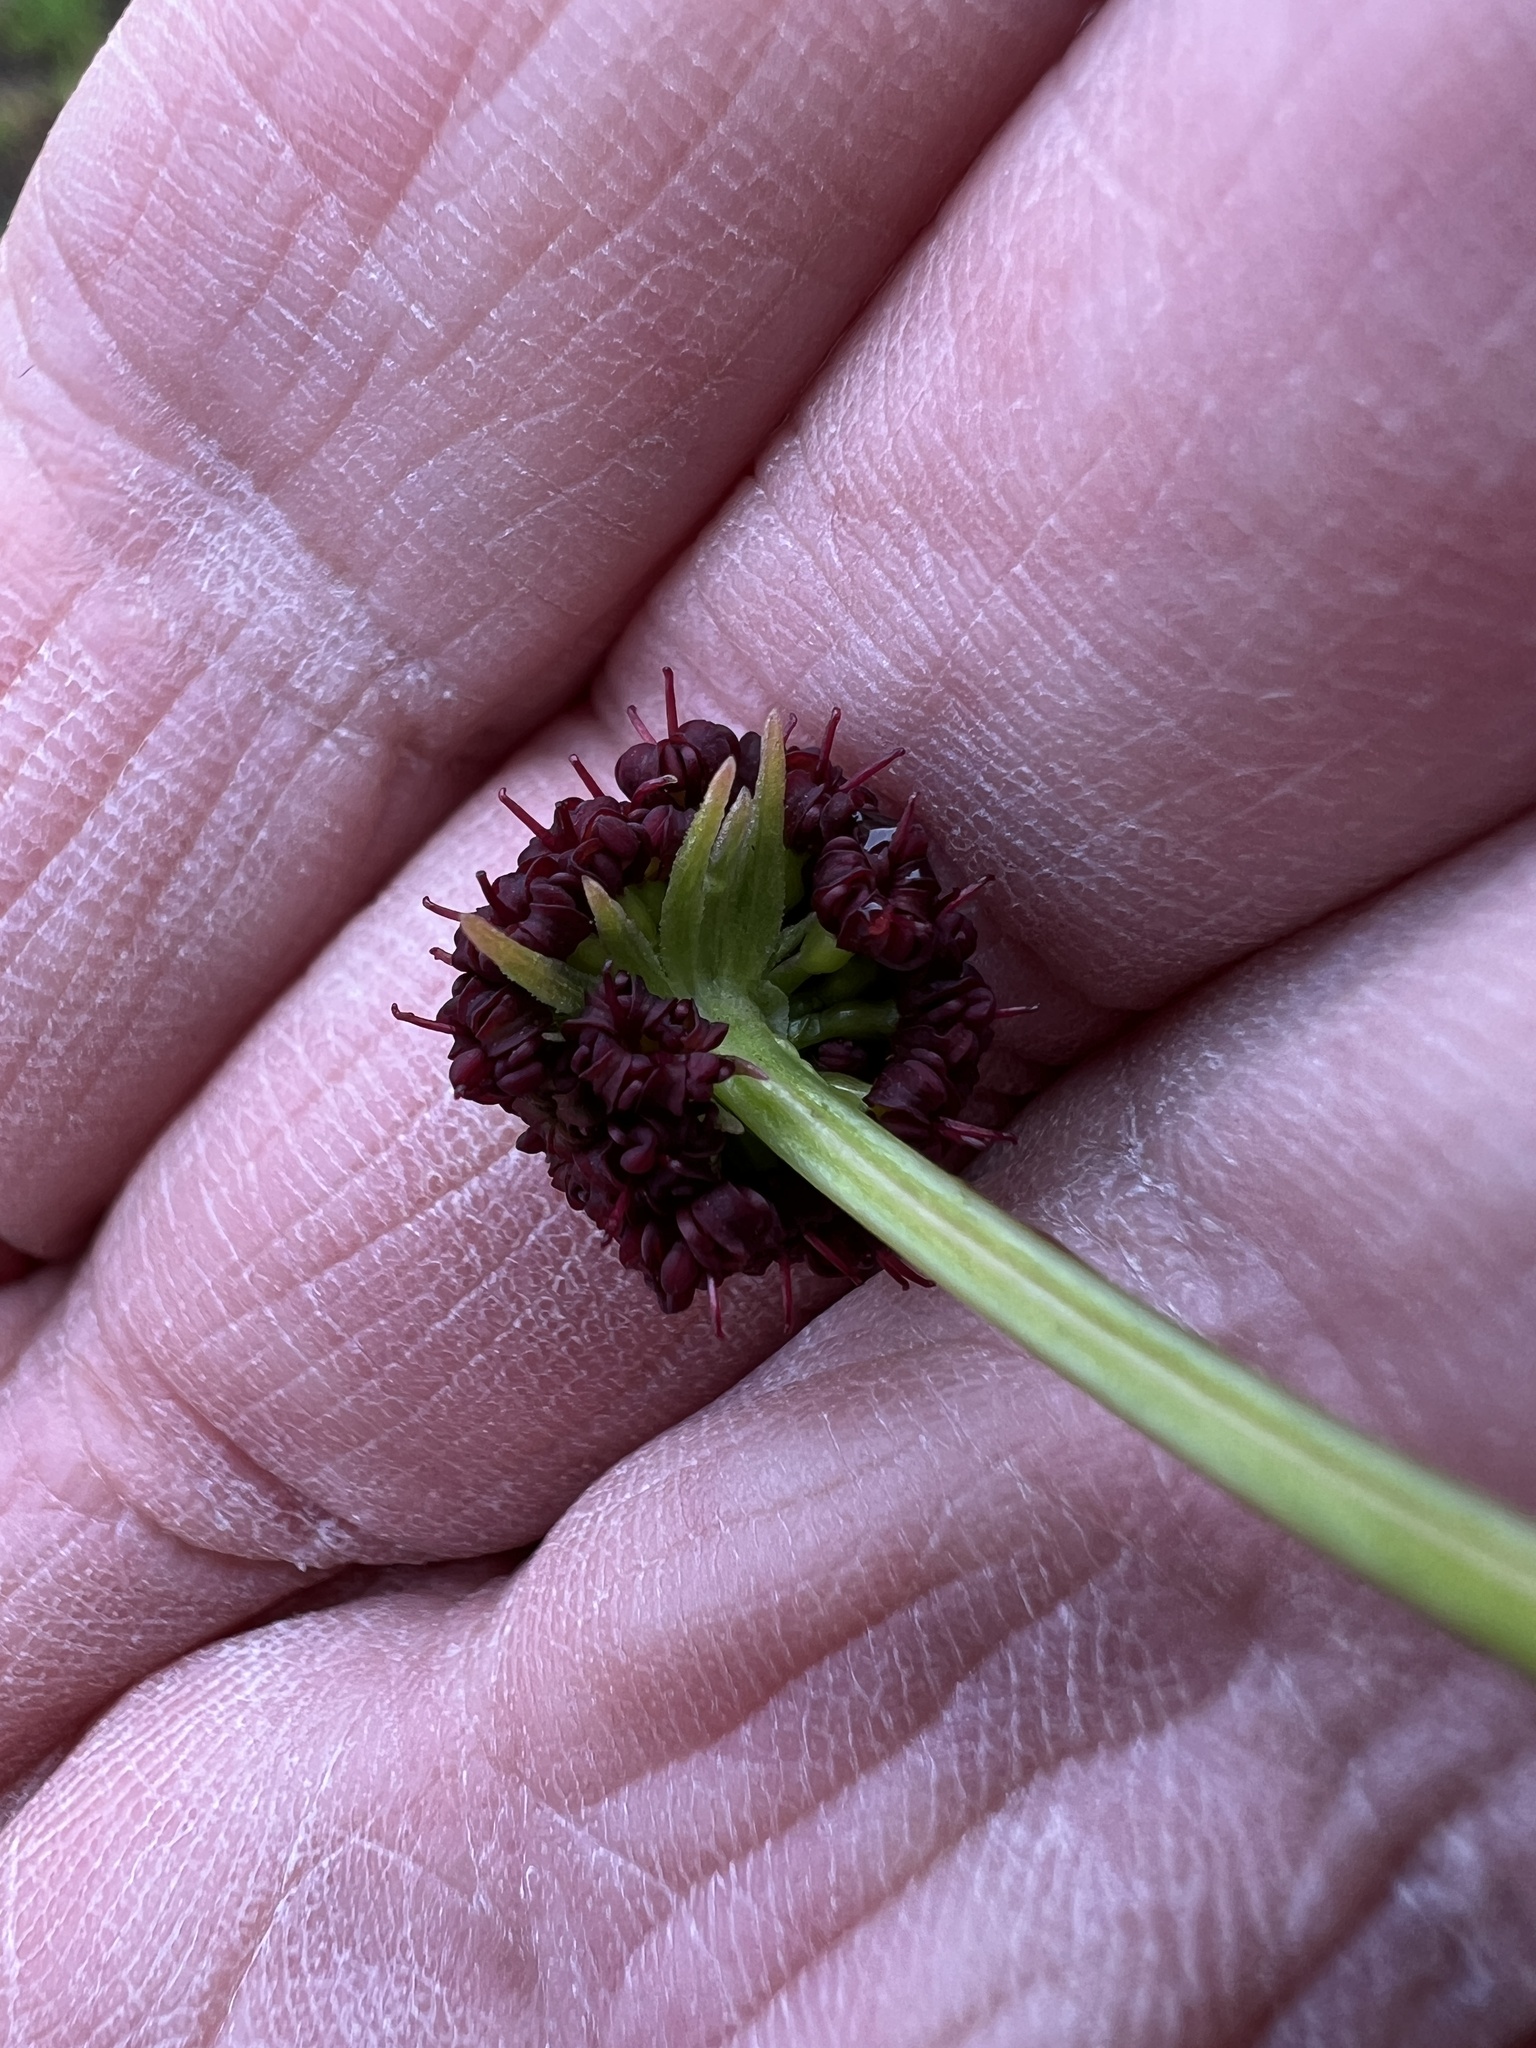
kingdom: Plantae
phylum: Tracheophyta
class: Magnoliopsida
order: Apiales
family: Apiaceae
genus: Lomatium
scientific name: Lomatium dissectum
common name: Lomatium
